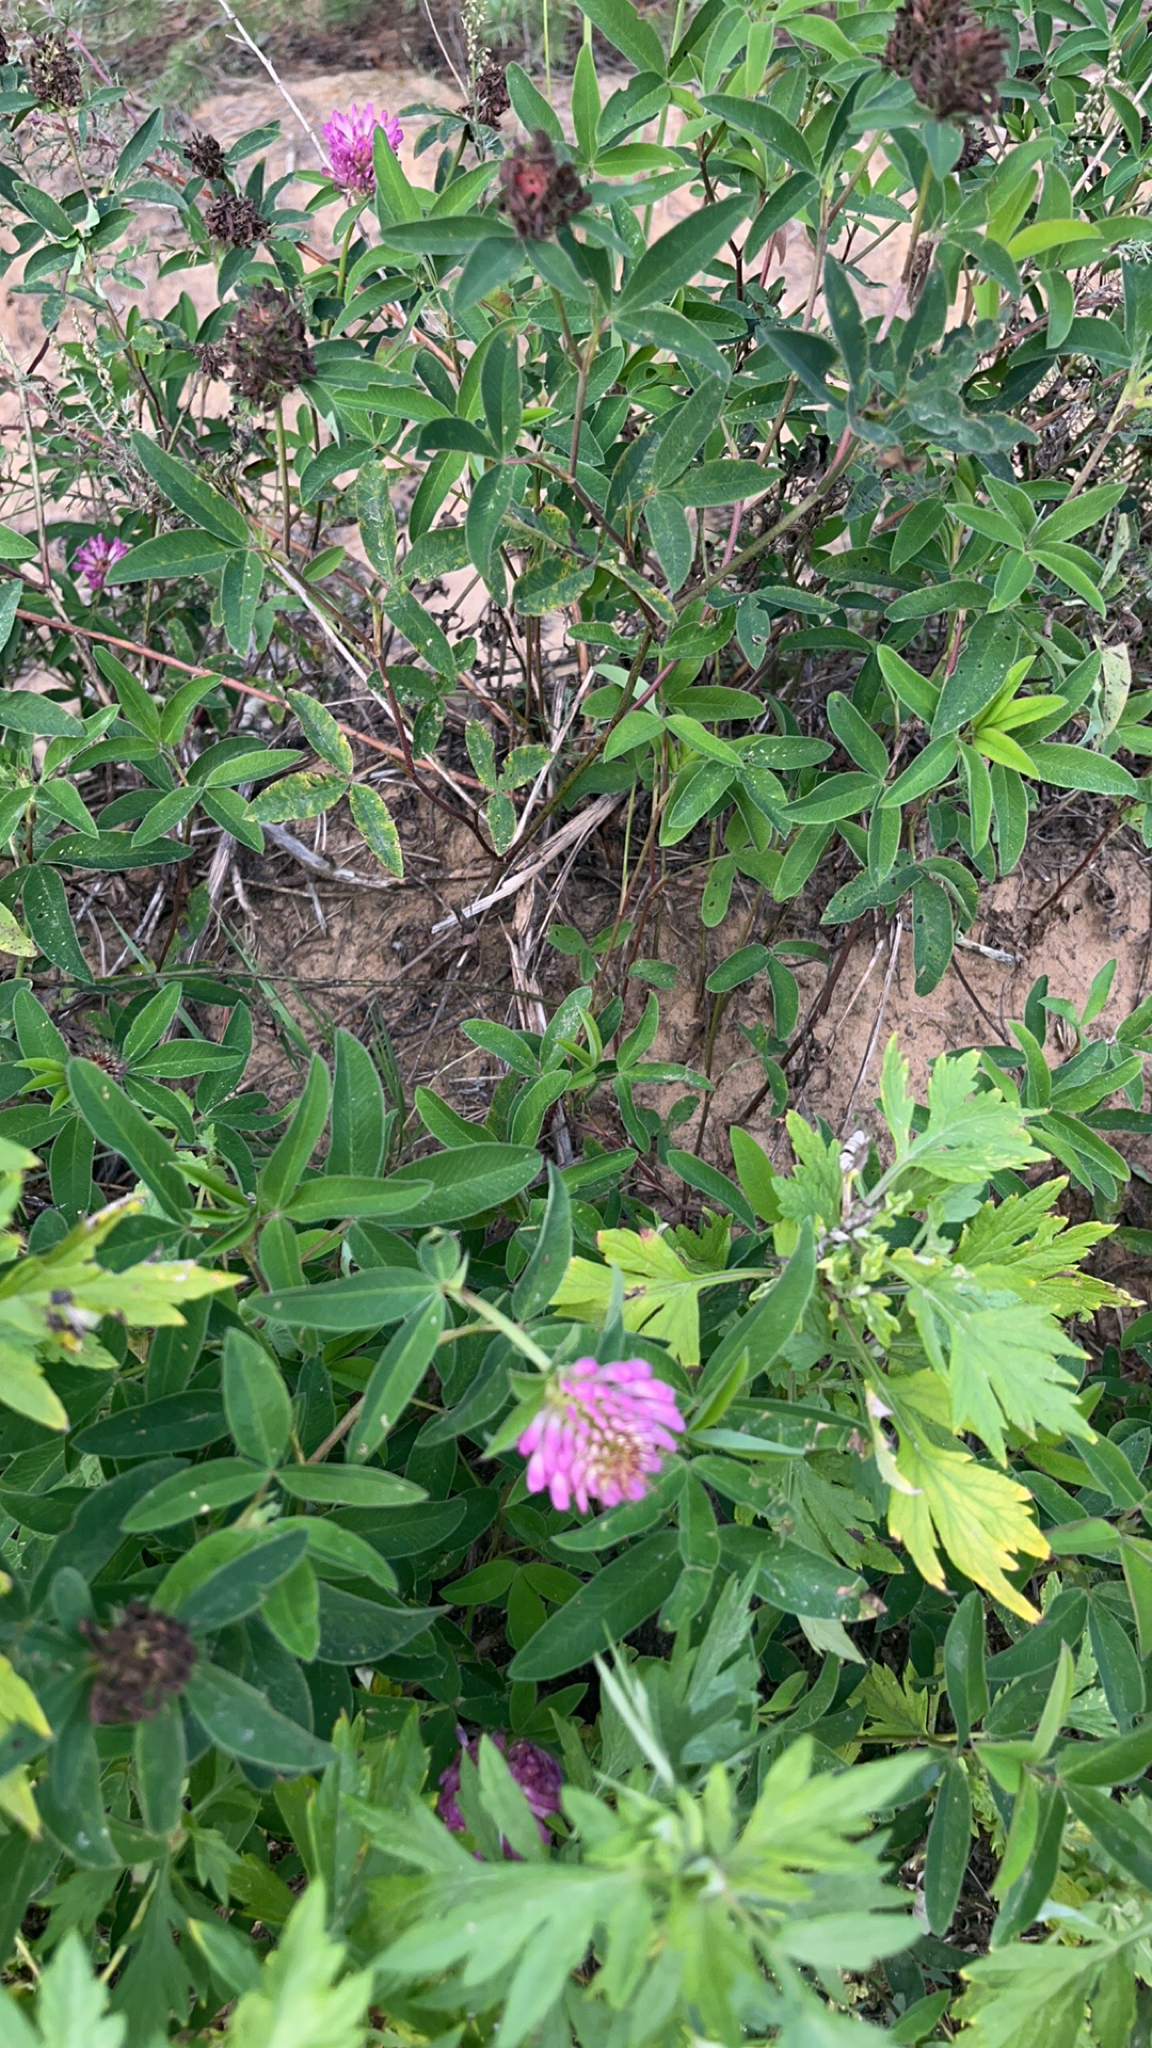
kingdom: Plantae
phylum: Tracheophyta
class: Magnoliopsida
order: Fabales
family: Fabaceae
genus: Trifolium
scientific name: Trifolium medium
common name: Zigzag clover
